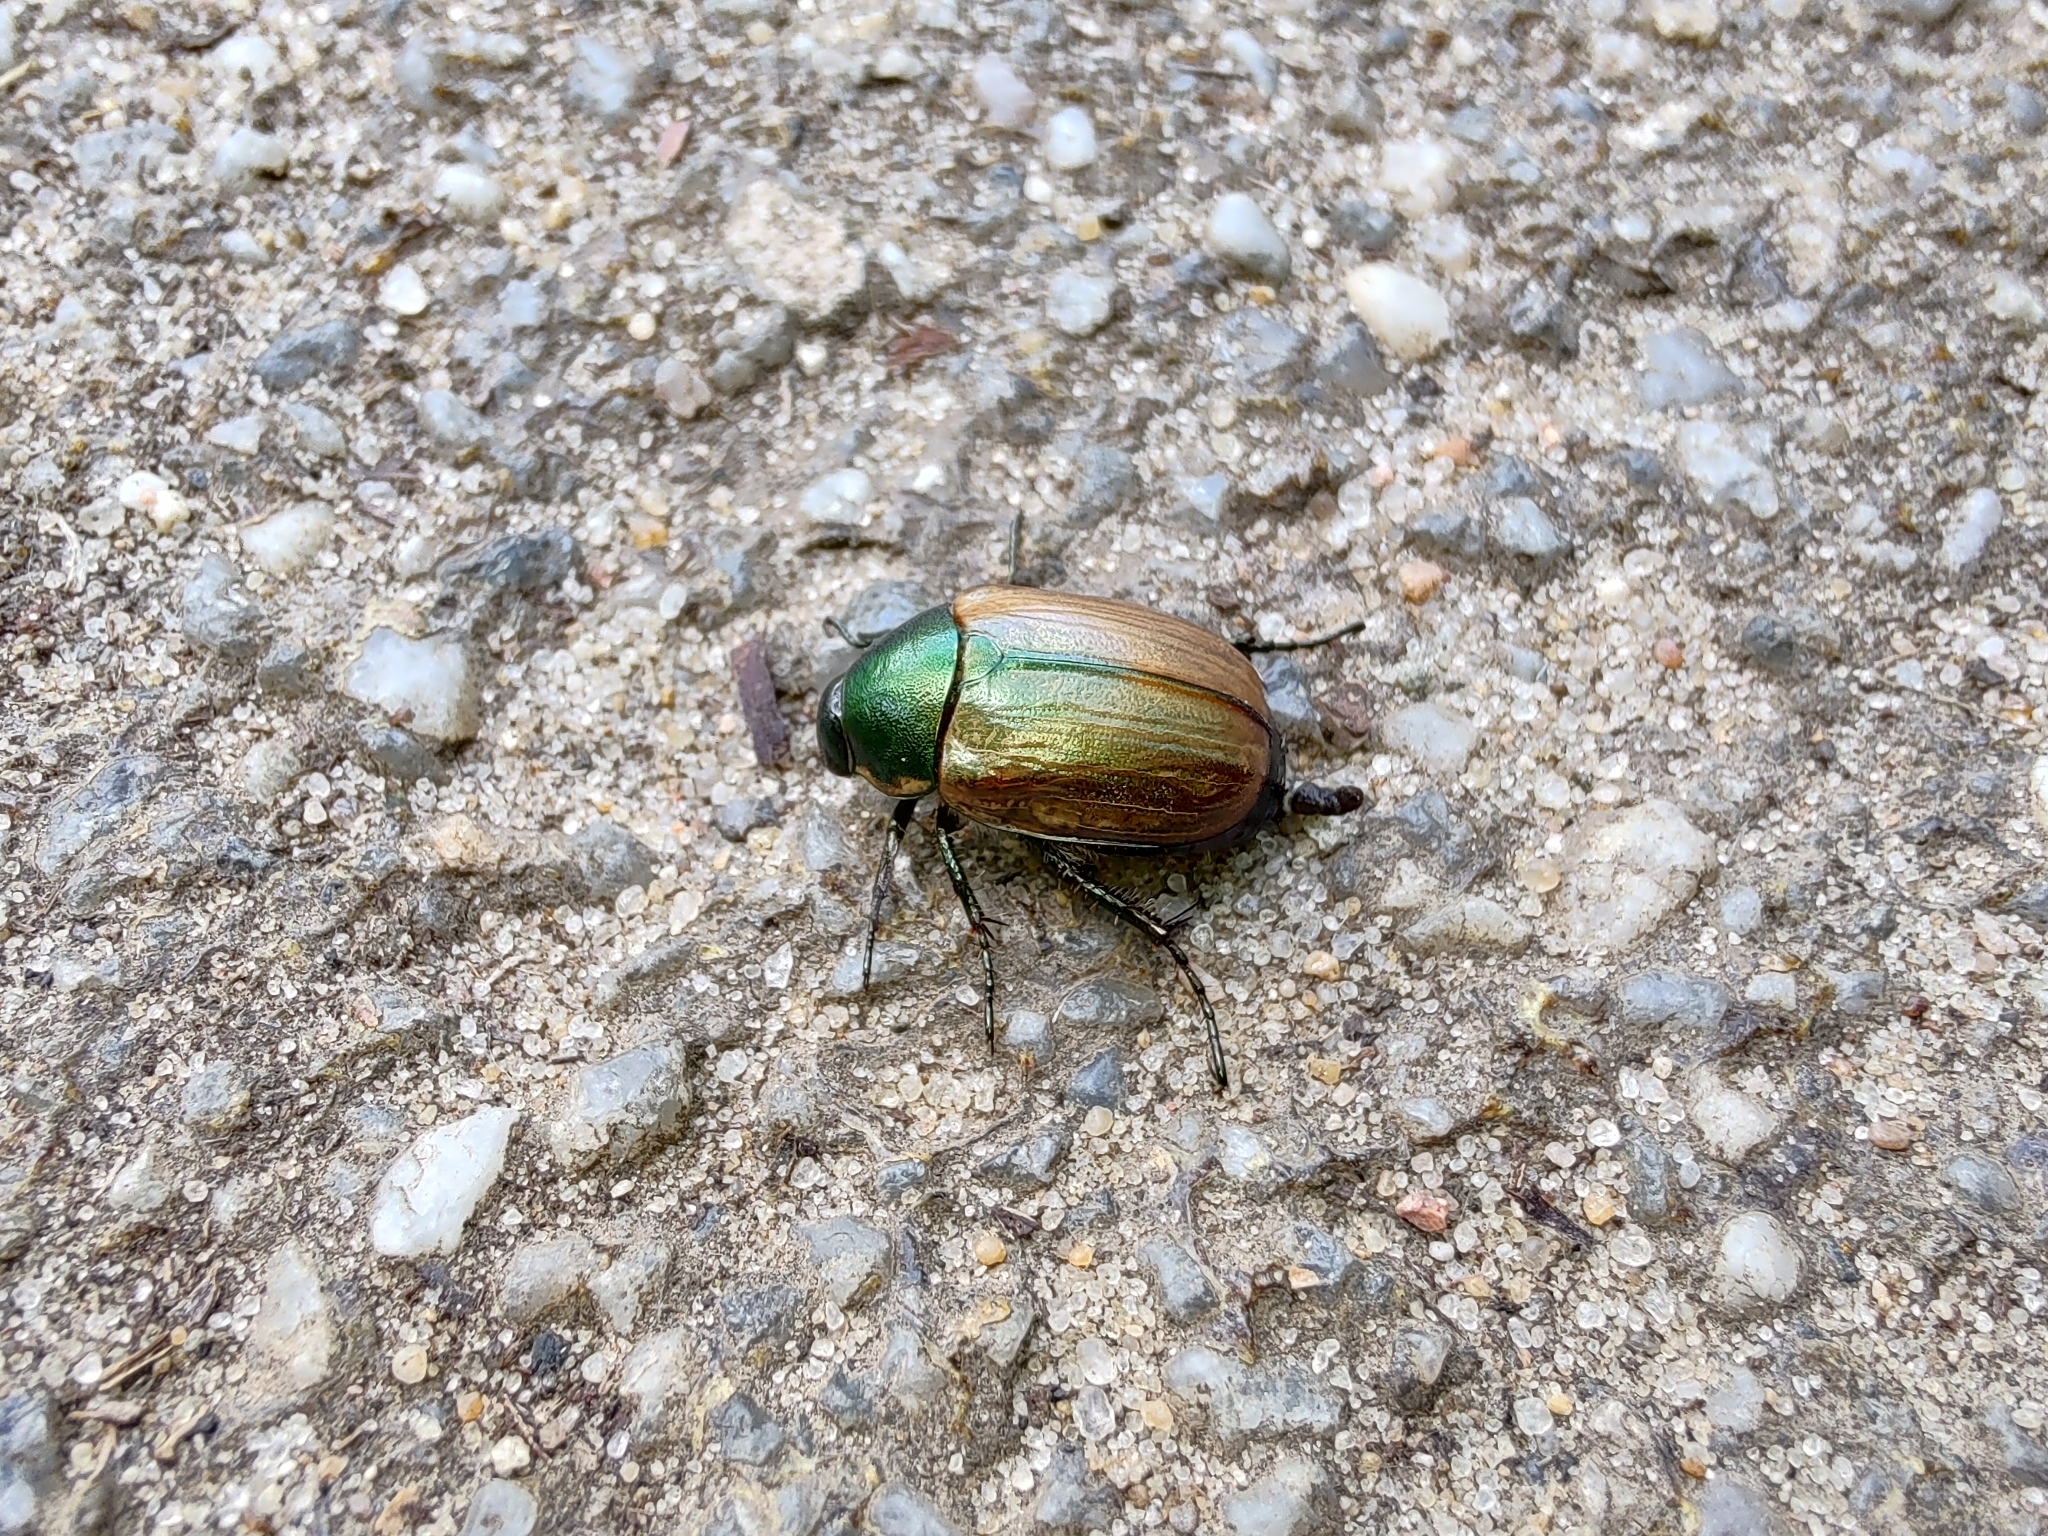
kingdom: Animalia
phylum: Arthropoda
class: Insecta
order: Coleoptera
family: Scarabaeidae
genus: Anomala
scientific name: Anomala dubia
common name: Dune chafer
